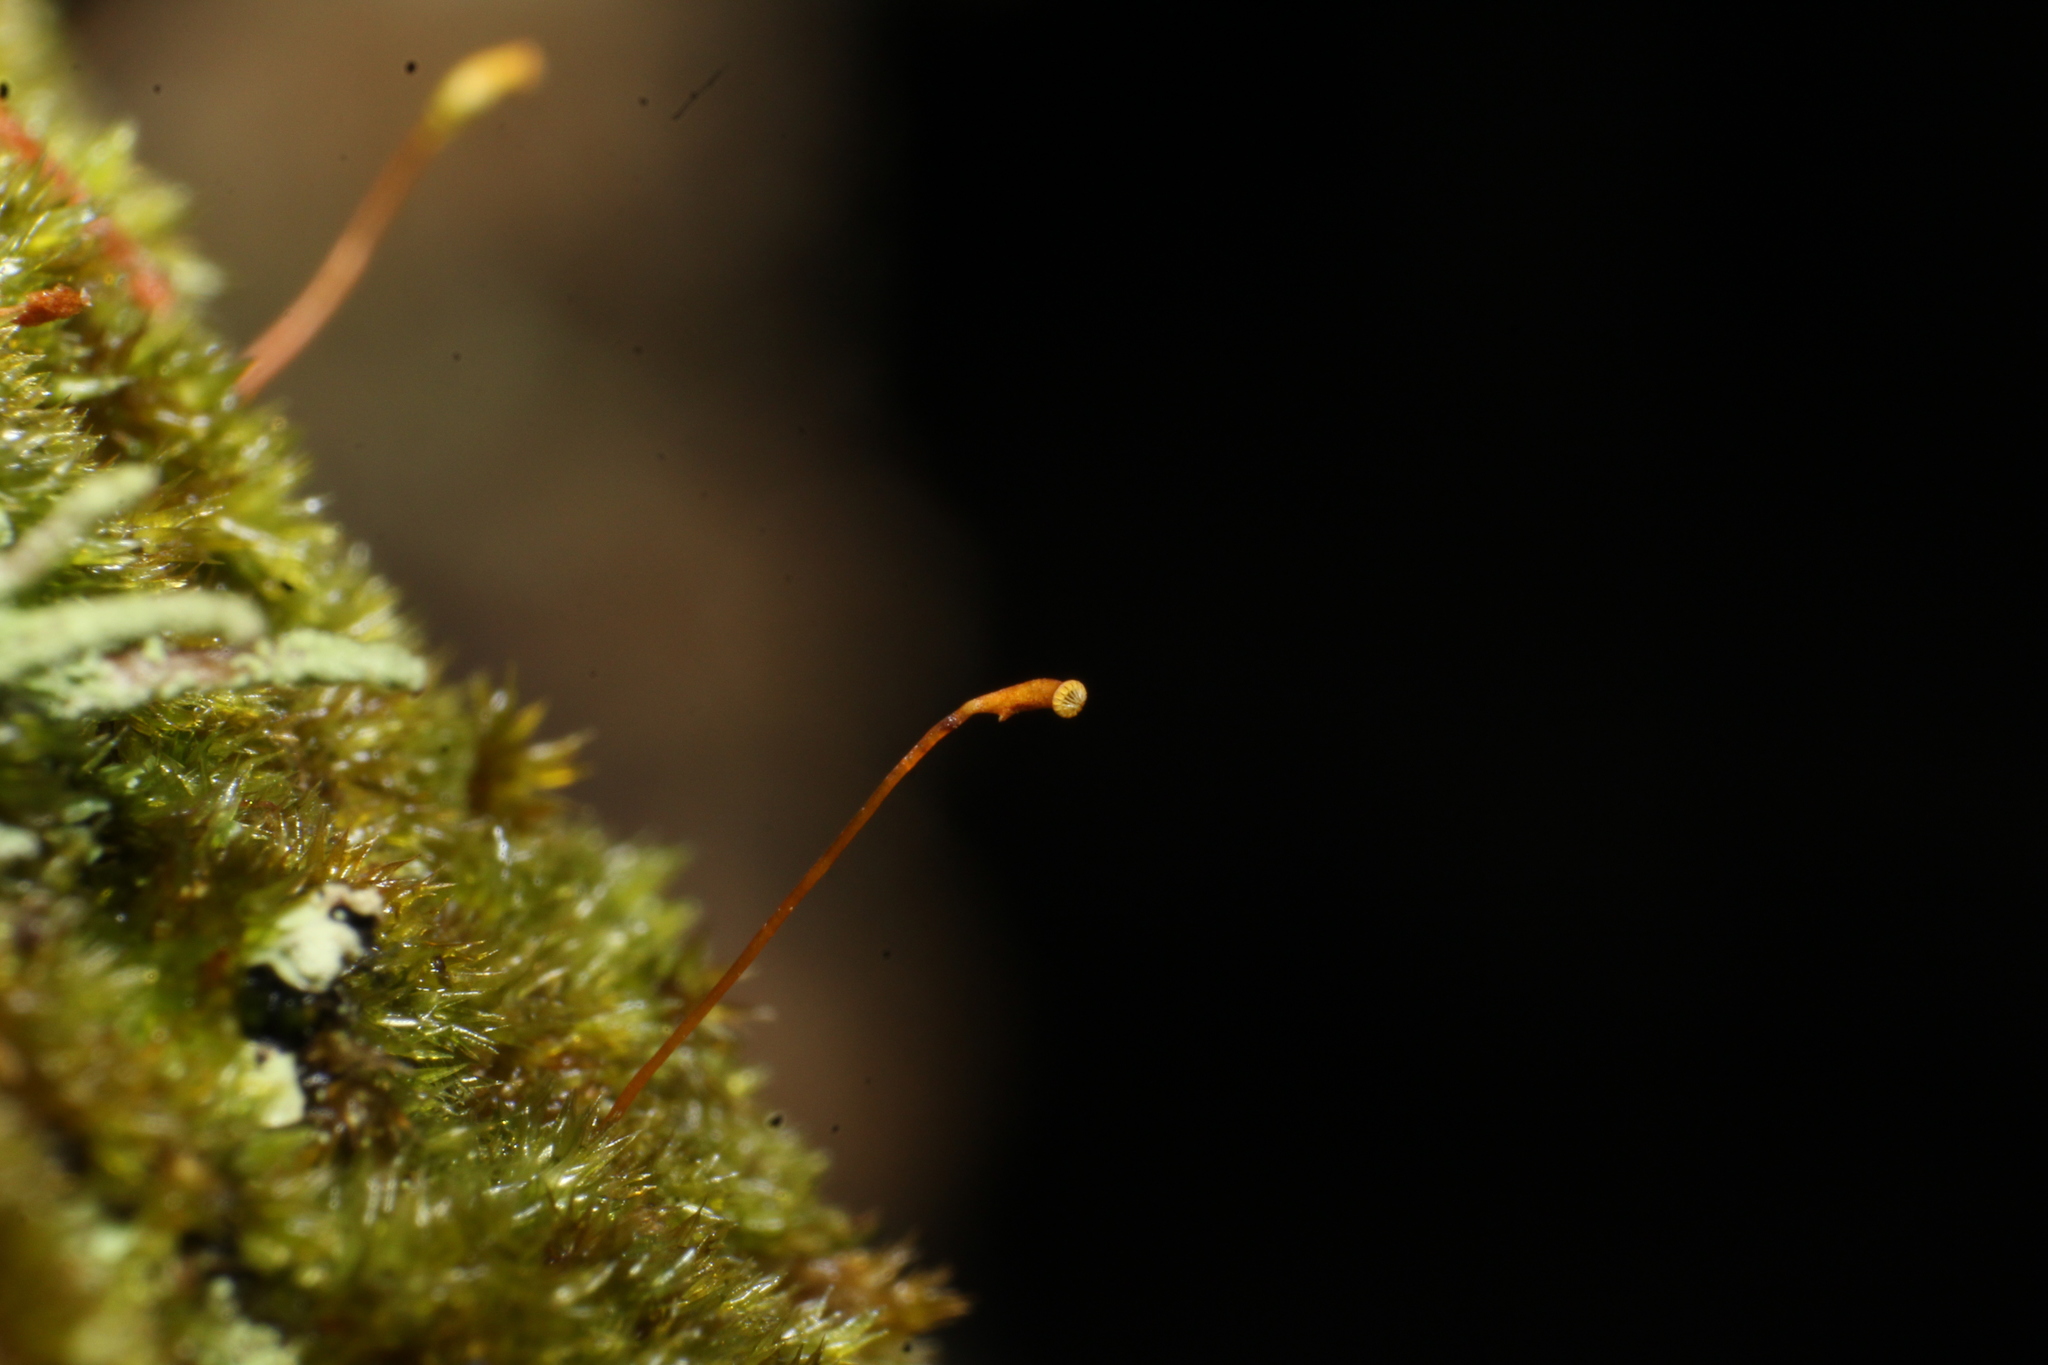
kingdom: Plantae
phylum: Bryophyta
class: Bryopsida
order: Hypnales
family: Sematophyllaceae
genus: Sematophyllum
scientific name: Sematophyllum homomallum
